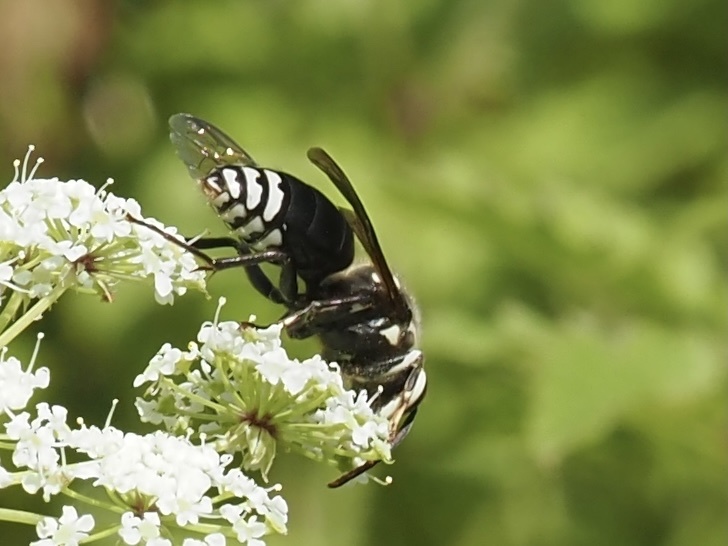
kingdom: Animalia
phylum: Arthropoda
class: Insecta
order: Hymenoptera
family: Vespidae
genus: Dolichovespula
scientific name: Dolichovespula maculata
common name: Bald-faced hornet
